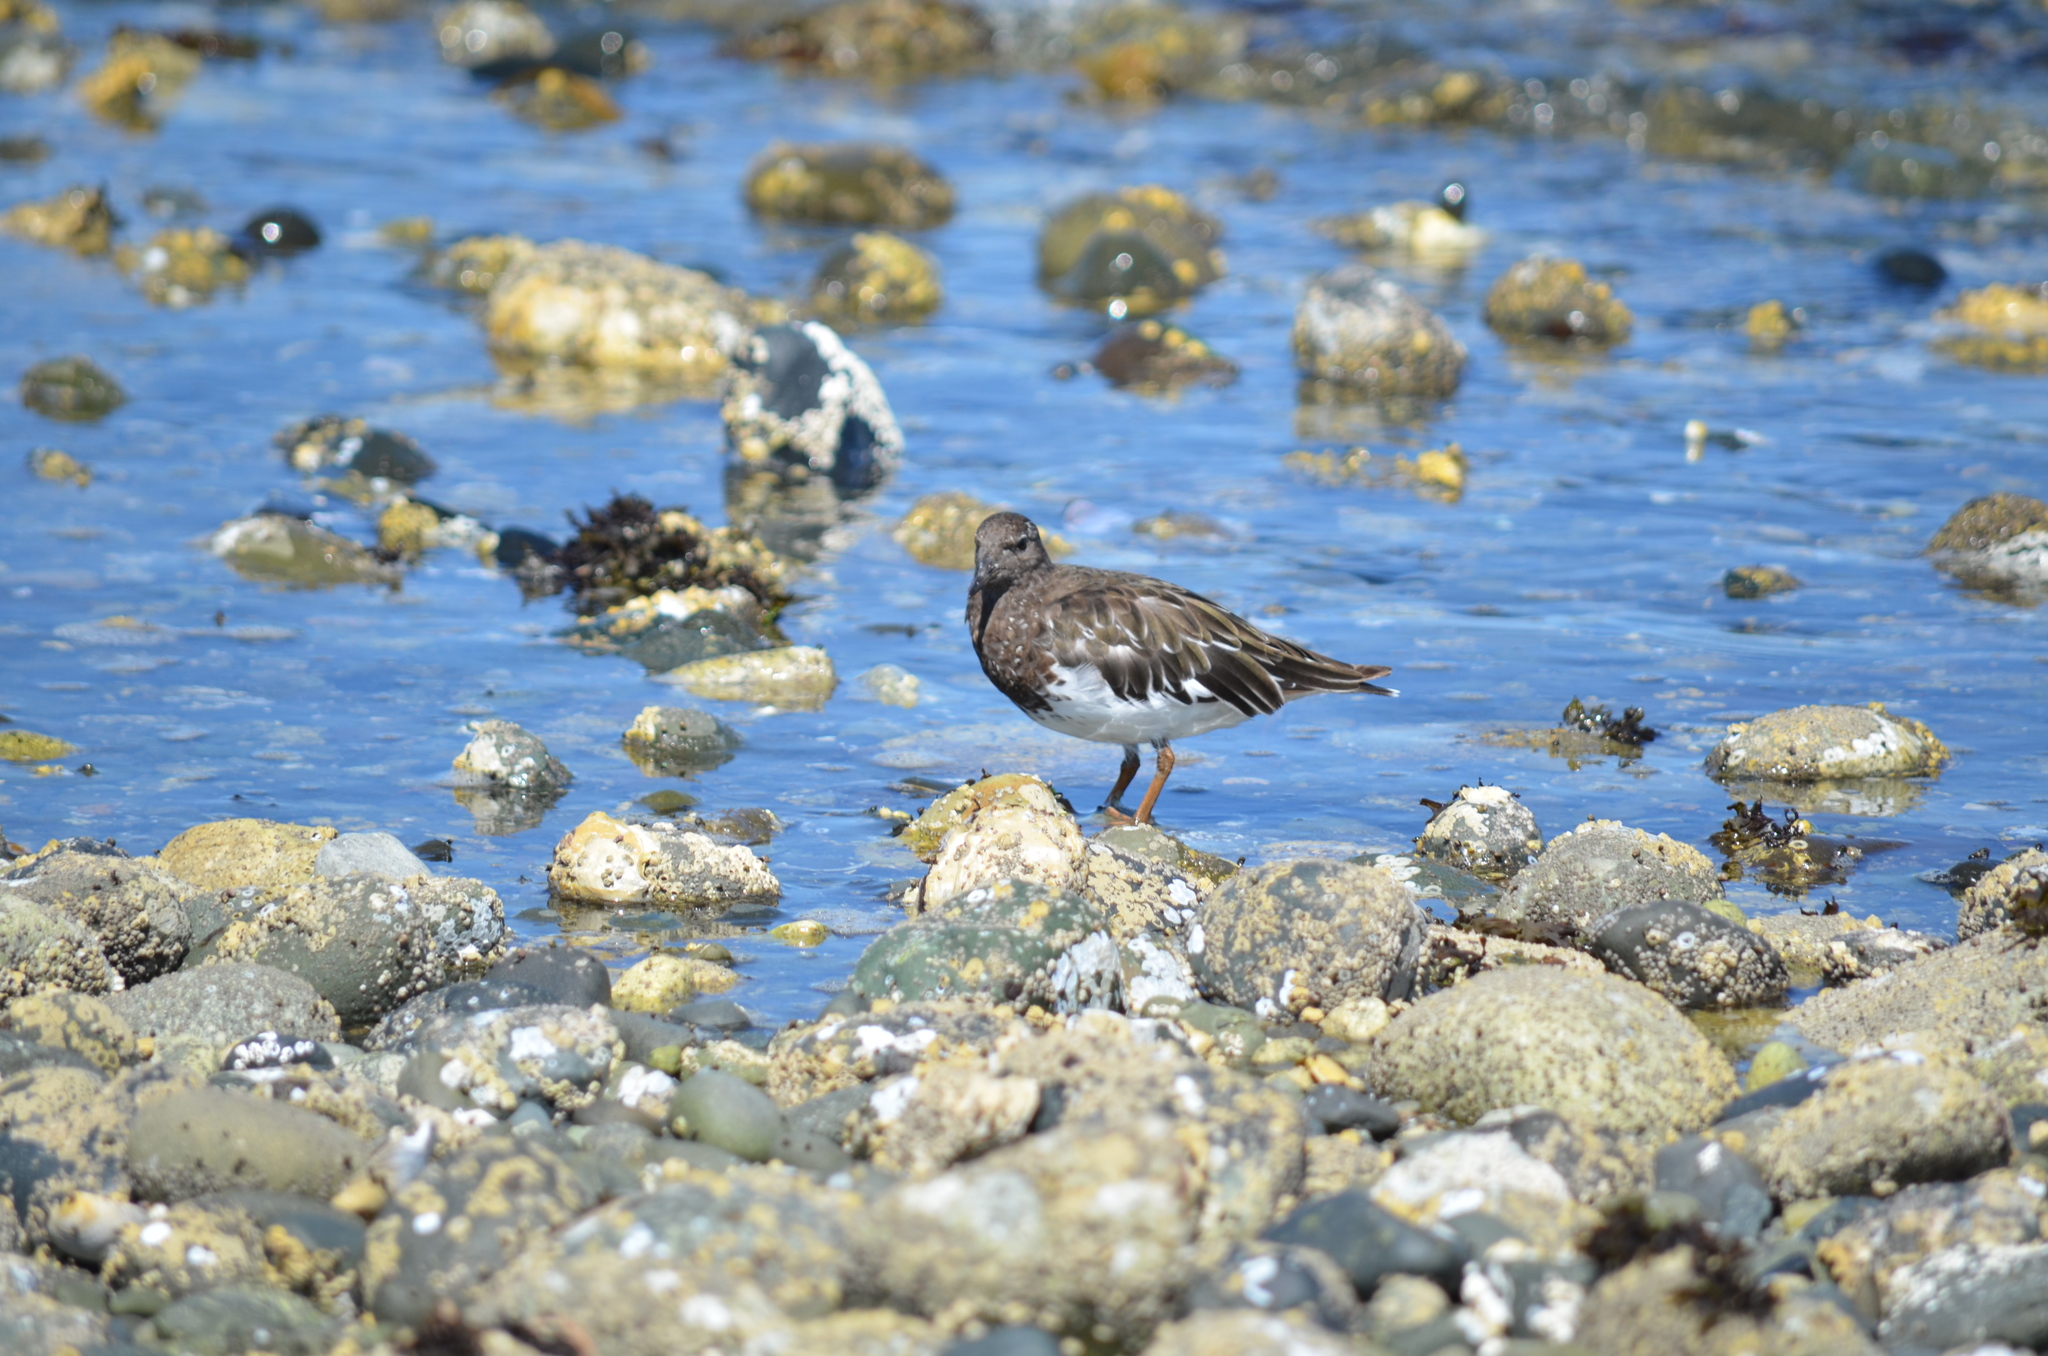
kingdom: Animalia
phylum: Chordata
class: Aves
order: Charadriiformes
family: Scolopacidae
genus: Arenaria
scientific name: Arenaria melanocephala
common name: Black turnstone
